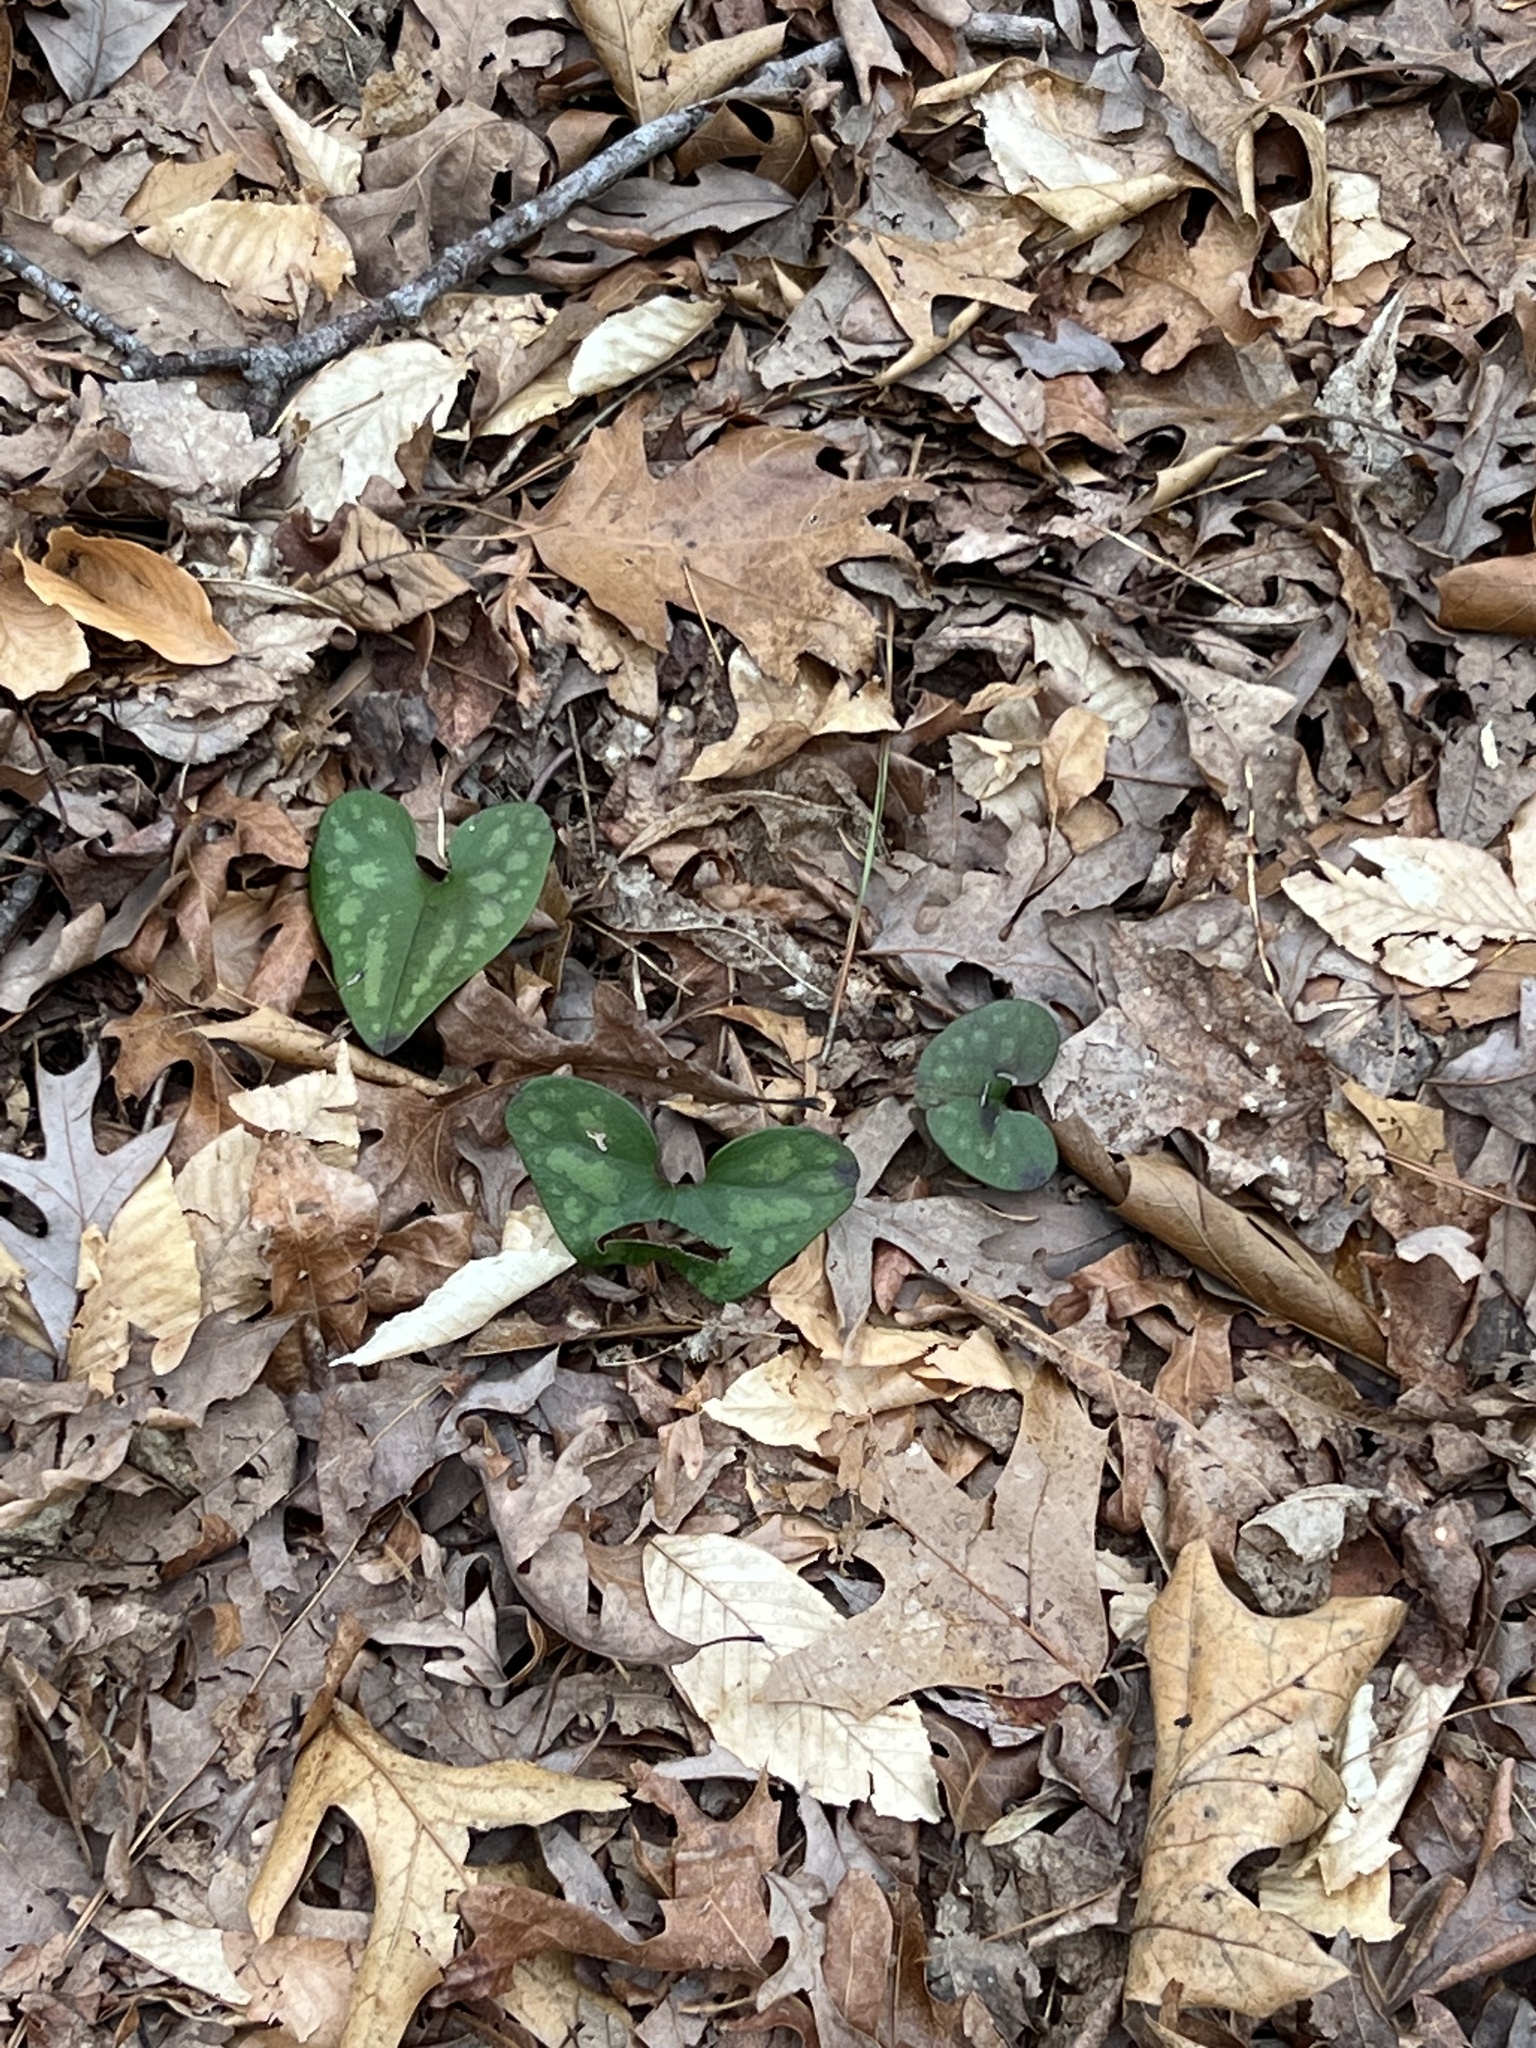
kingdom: Plantae
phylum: Tracheophyta
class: Magnoliopsida
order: Piperales
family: Aristolochiaceae
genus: Hexastylis
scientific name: Hexastylis arifolia
